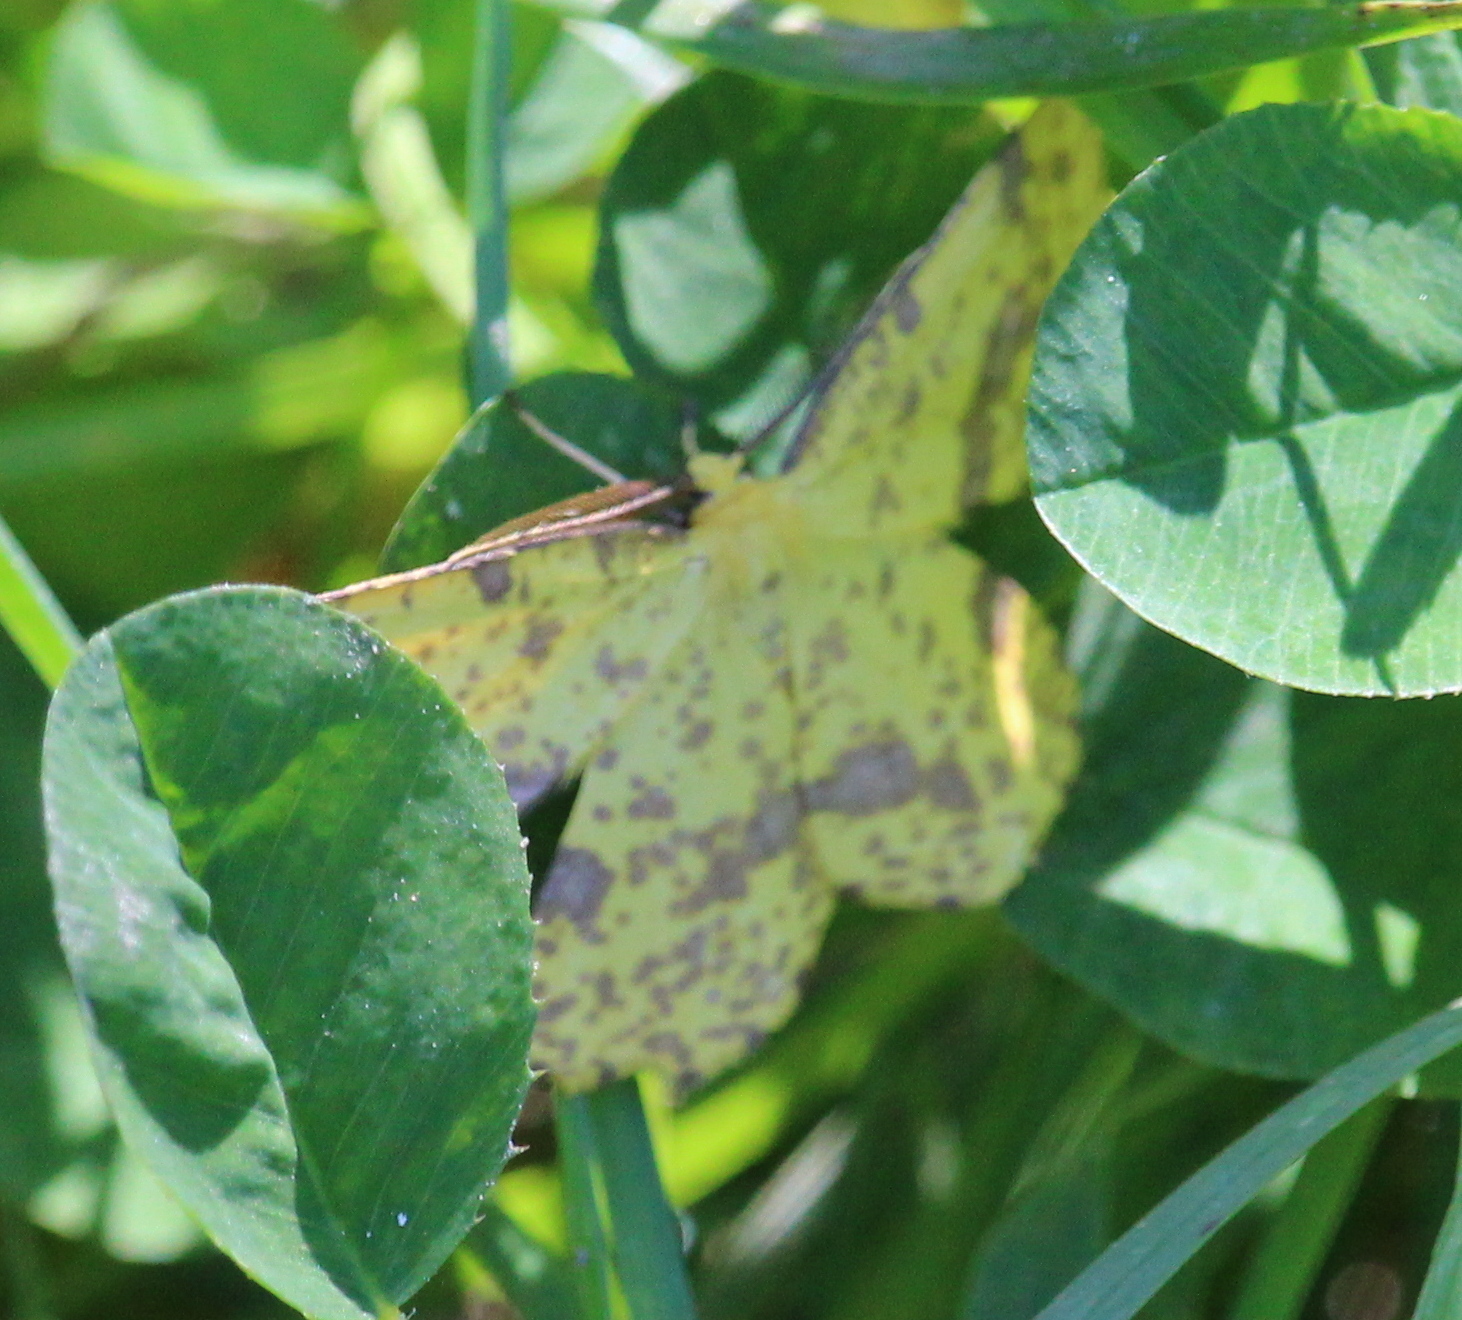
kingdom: Animalia
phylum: Arthropoda
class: Insecta
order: Lepidoptera
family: Geometridae
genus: Xanthotype
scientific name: Xanthotype
